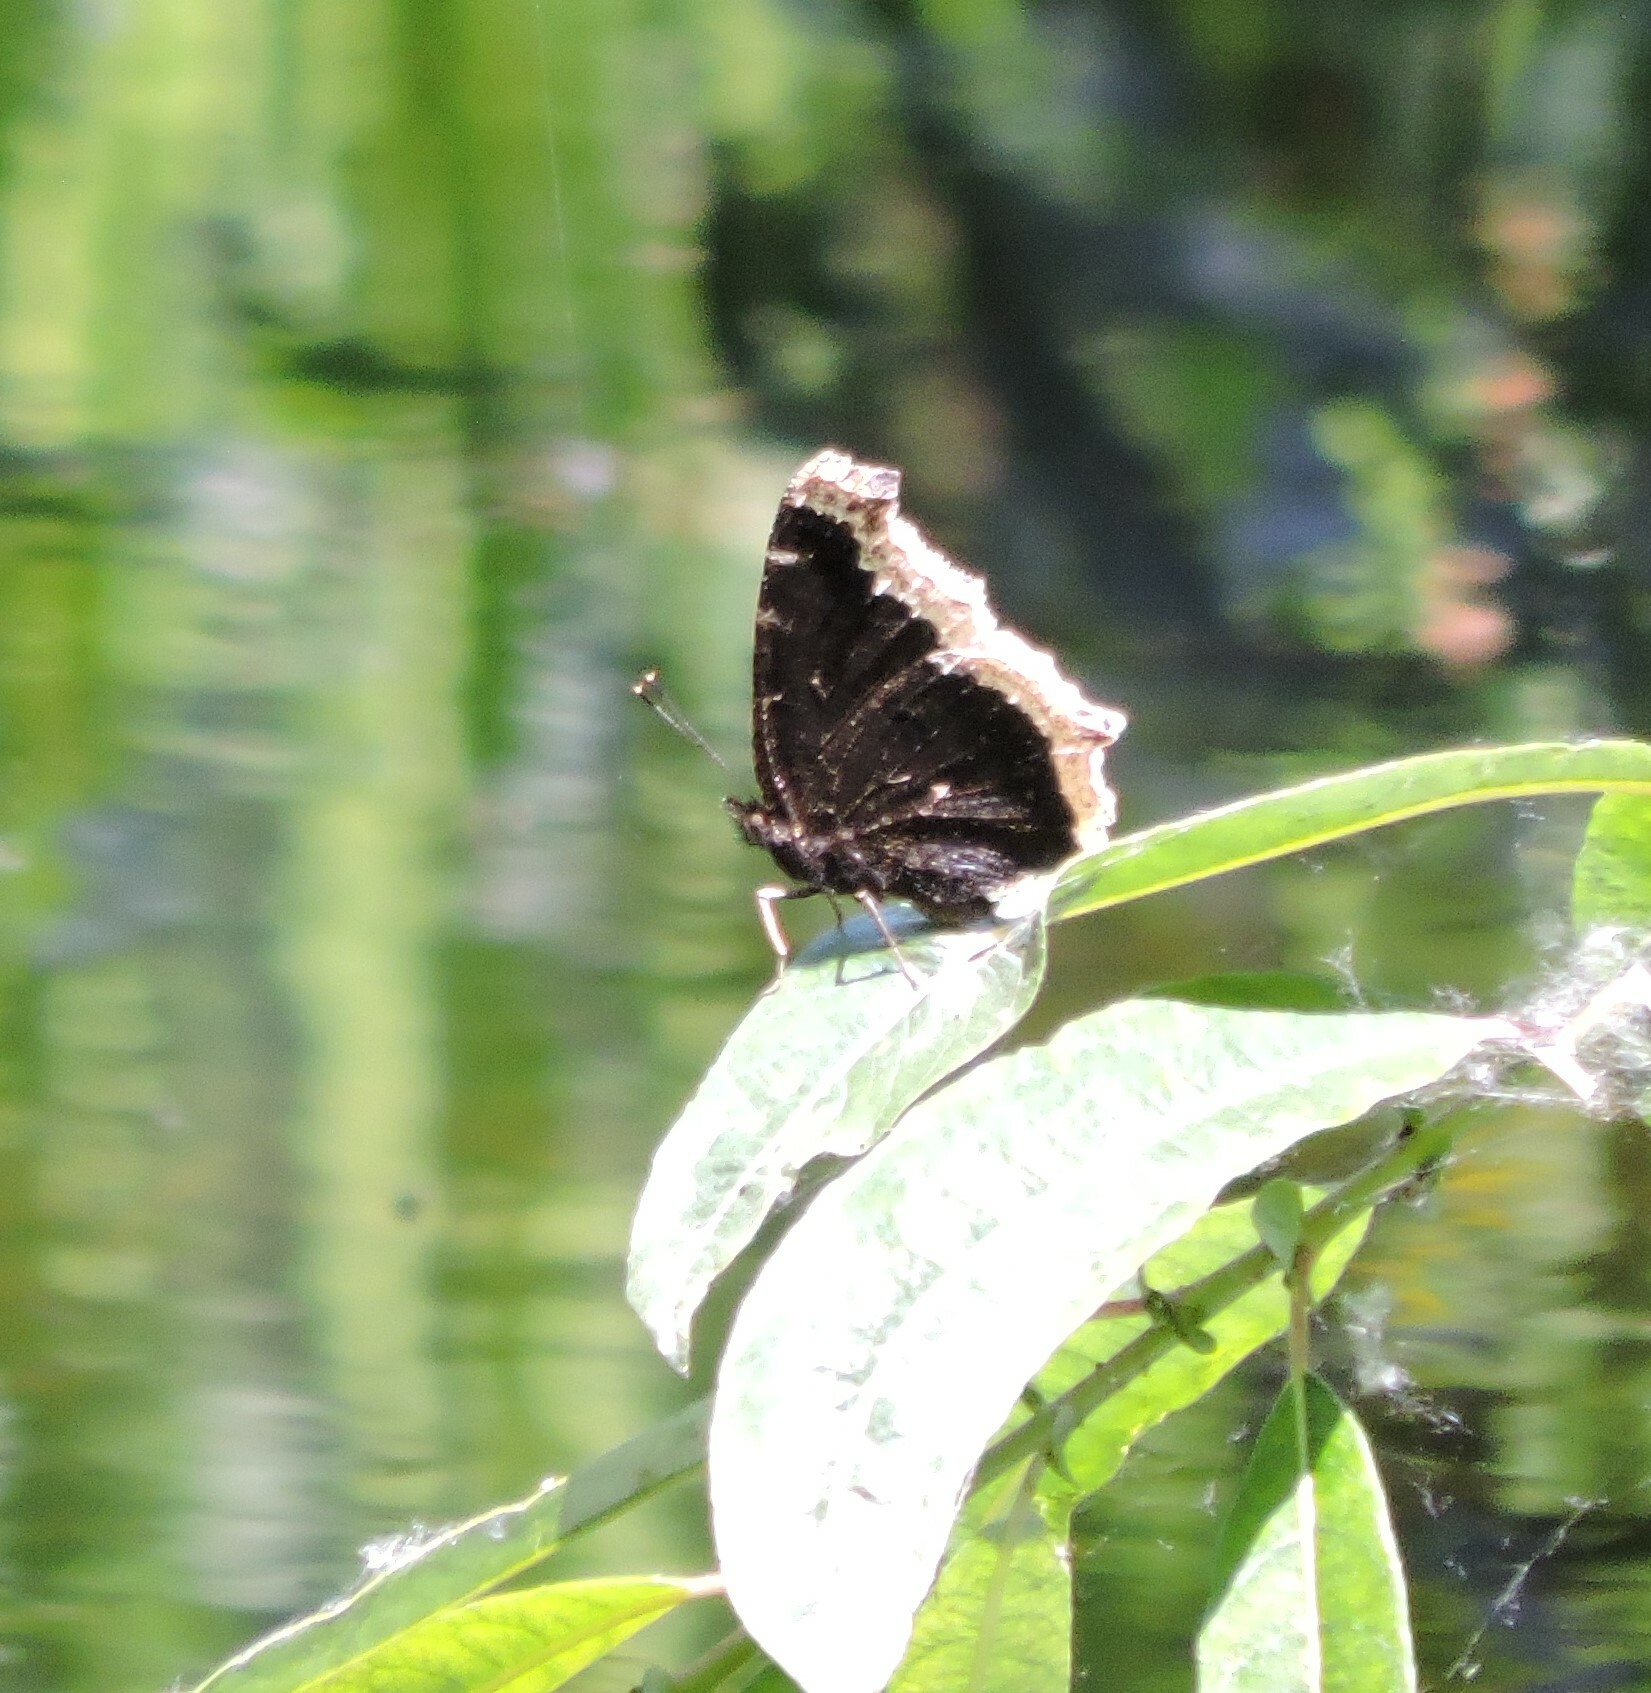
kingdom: Animalia
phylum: Arthropoda
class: Insecta
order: Lepidoptera
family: Nymphalidae
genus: Nymphalis
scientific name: Nymphalis antiopa
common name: Camberwell beauty
